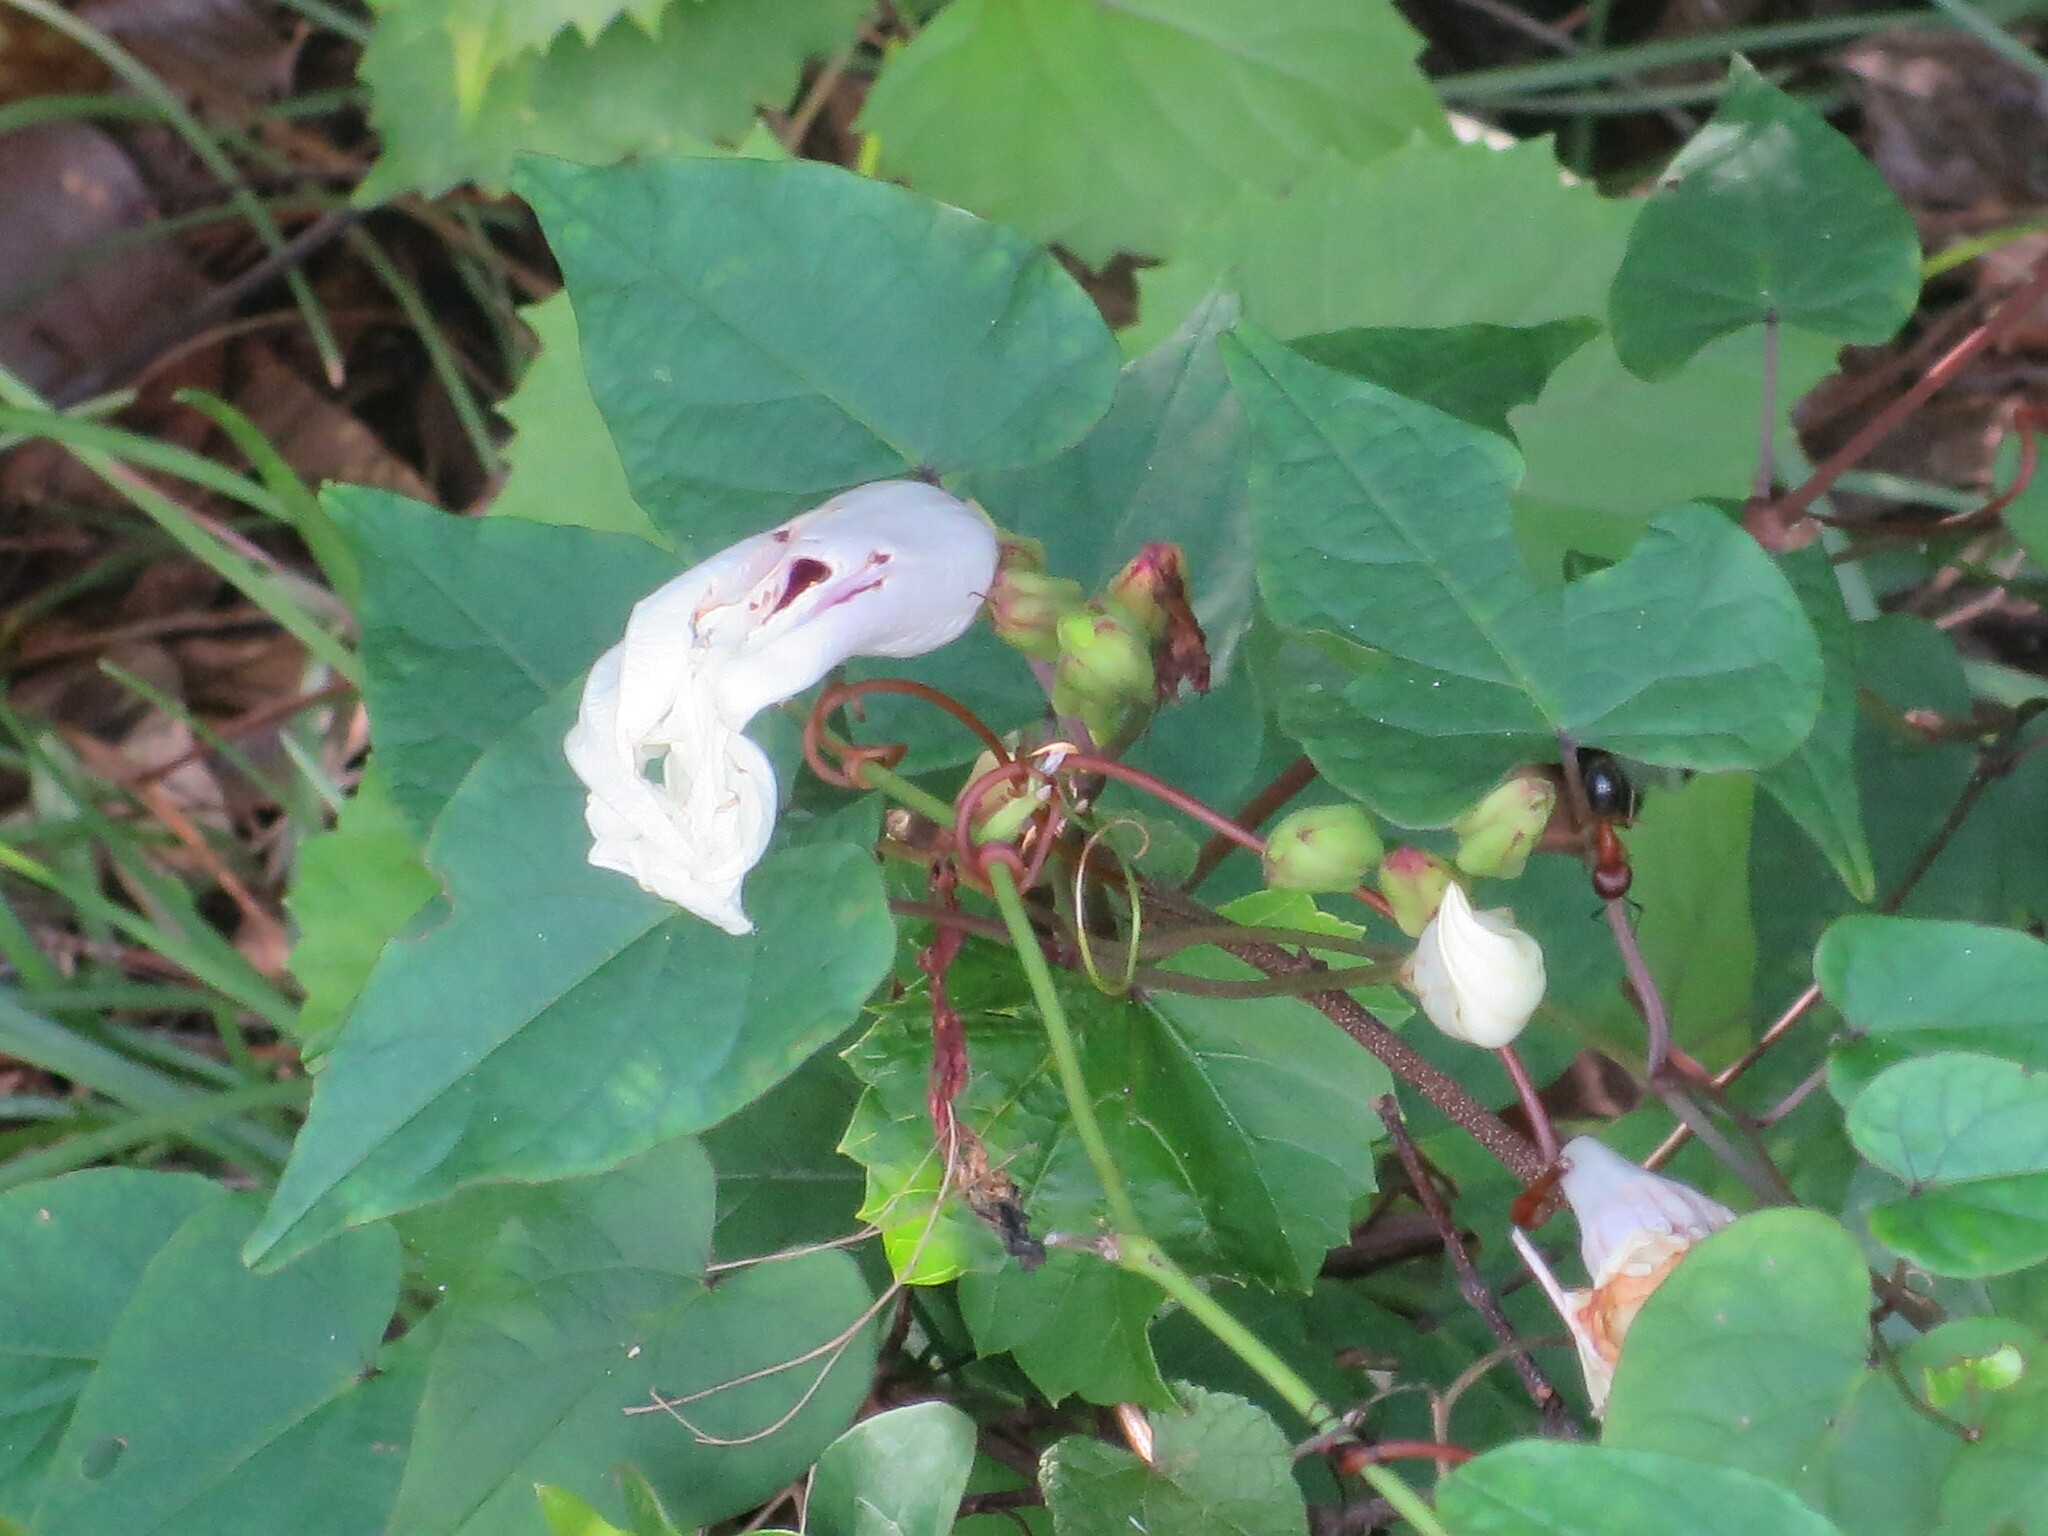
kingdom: Plantae
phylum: Tracheophyta
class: Magnoliopsida
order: Solanales
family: Convolvulaceae
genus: Ipomoea
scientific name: Ipomoea pandurata
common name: Man-of-the-earth
